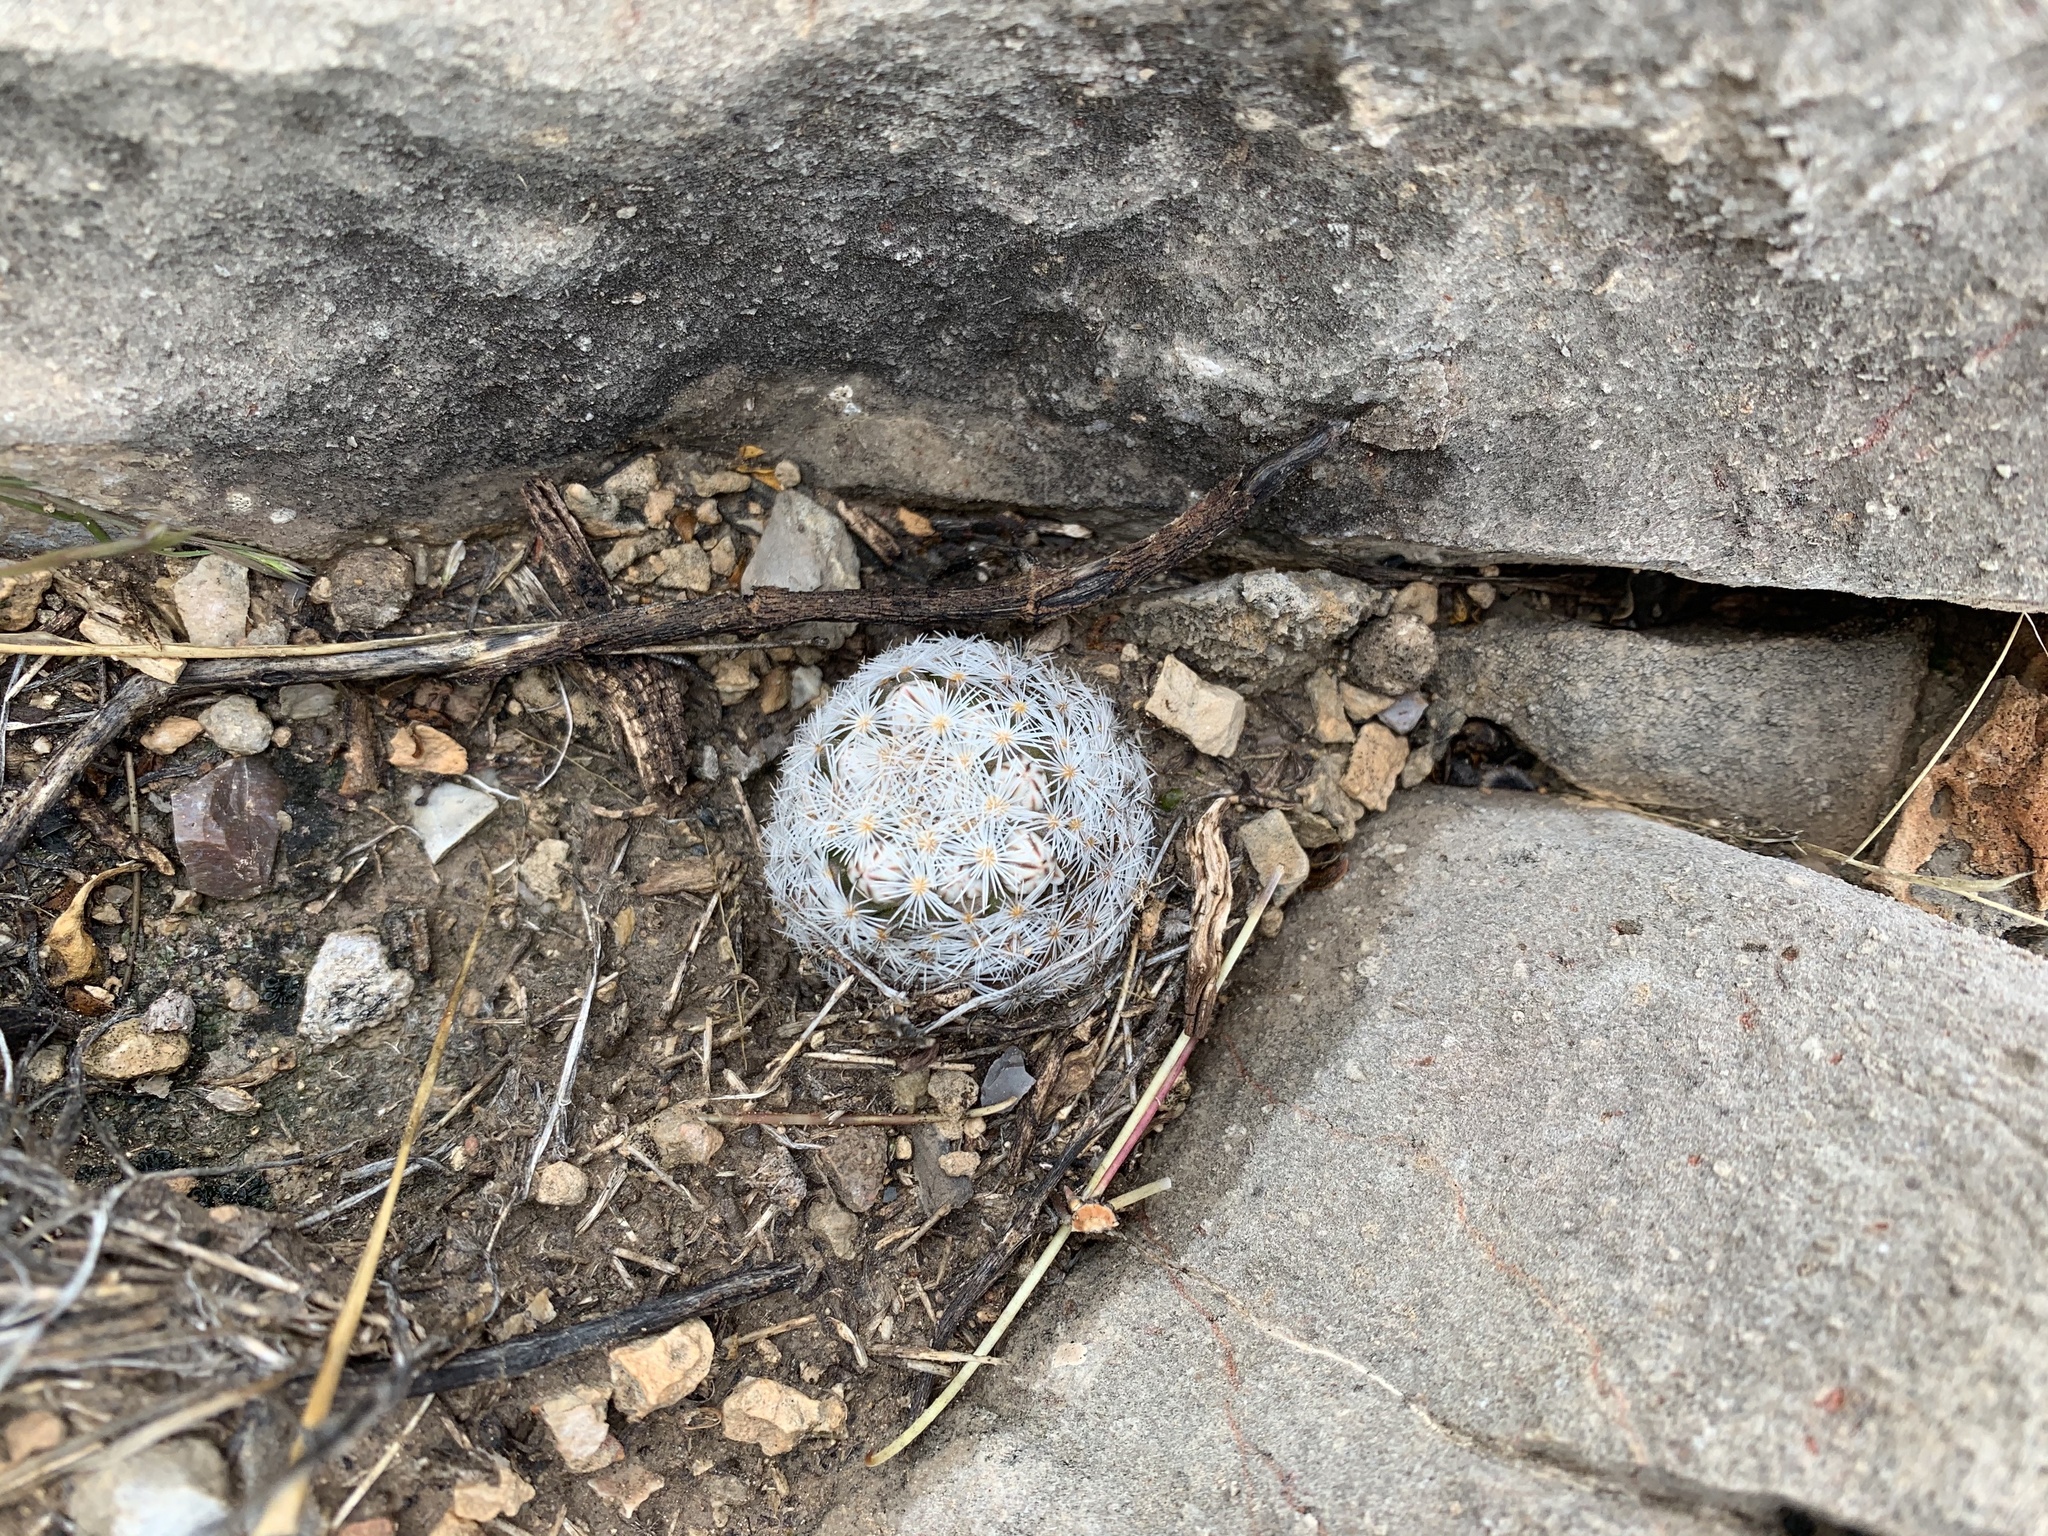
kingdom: Plantae
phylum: Tracheophyta
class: Magnoliopsida
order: Caryophyllales
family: Cactaceae
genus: Mammillaria
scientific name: Mammillaria lasiacantha
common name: Lace-spine nipple cactus
